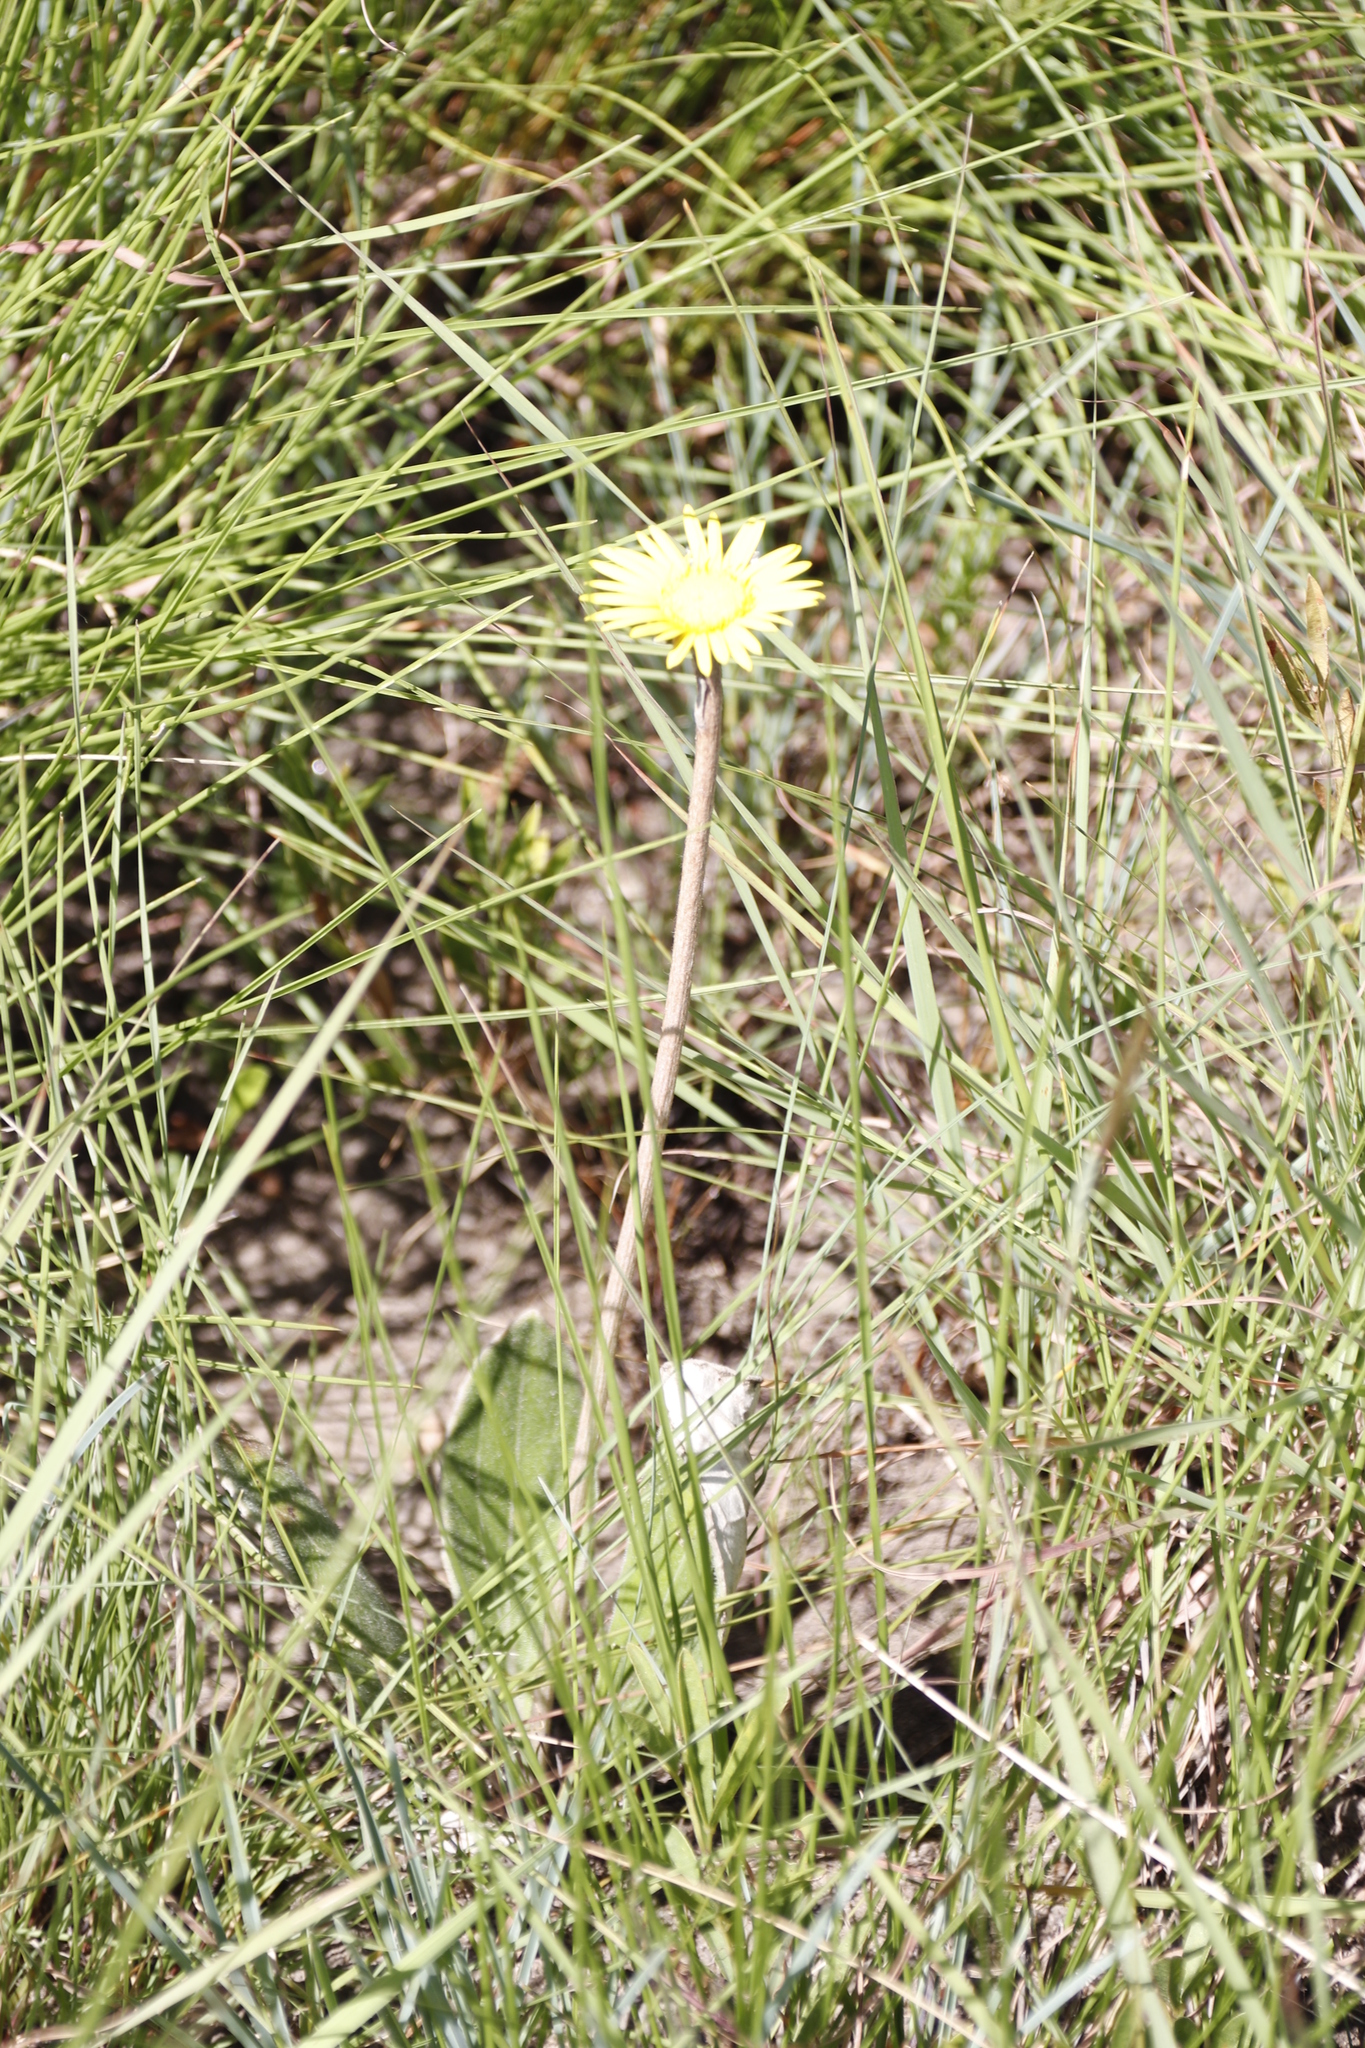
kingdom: Plantae
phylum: Tracheophyta
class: Magnoliopsida
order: Asterales
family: Asteraceae
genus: Haplocarpha
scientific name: Haplocarpha scaposa
